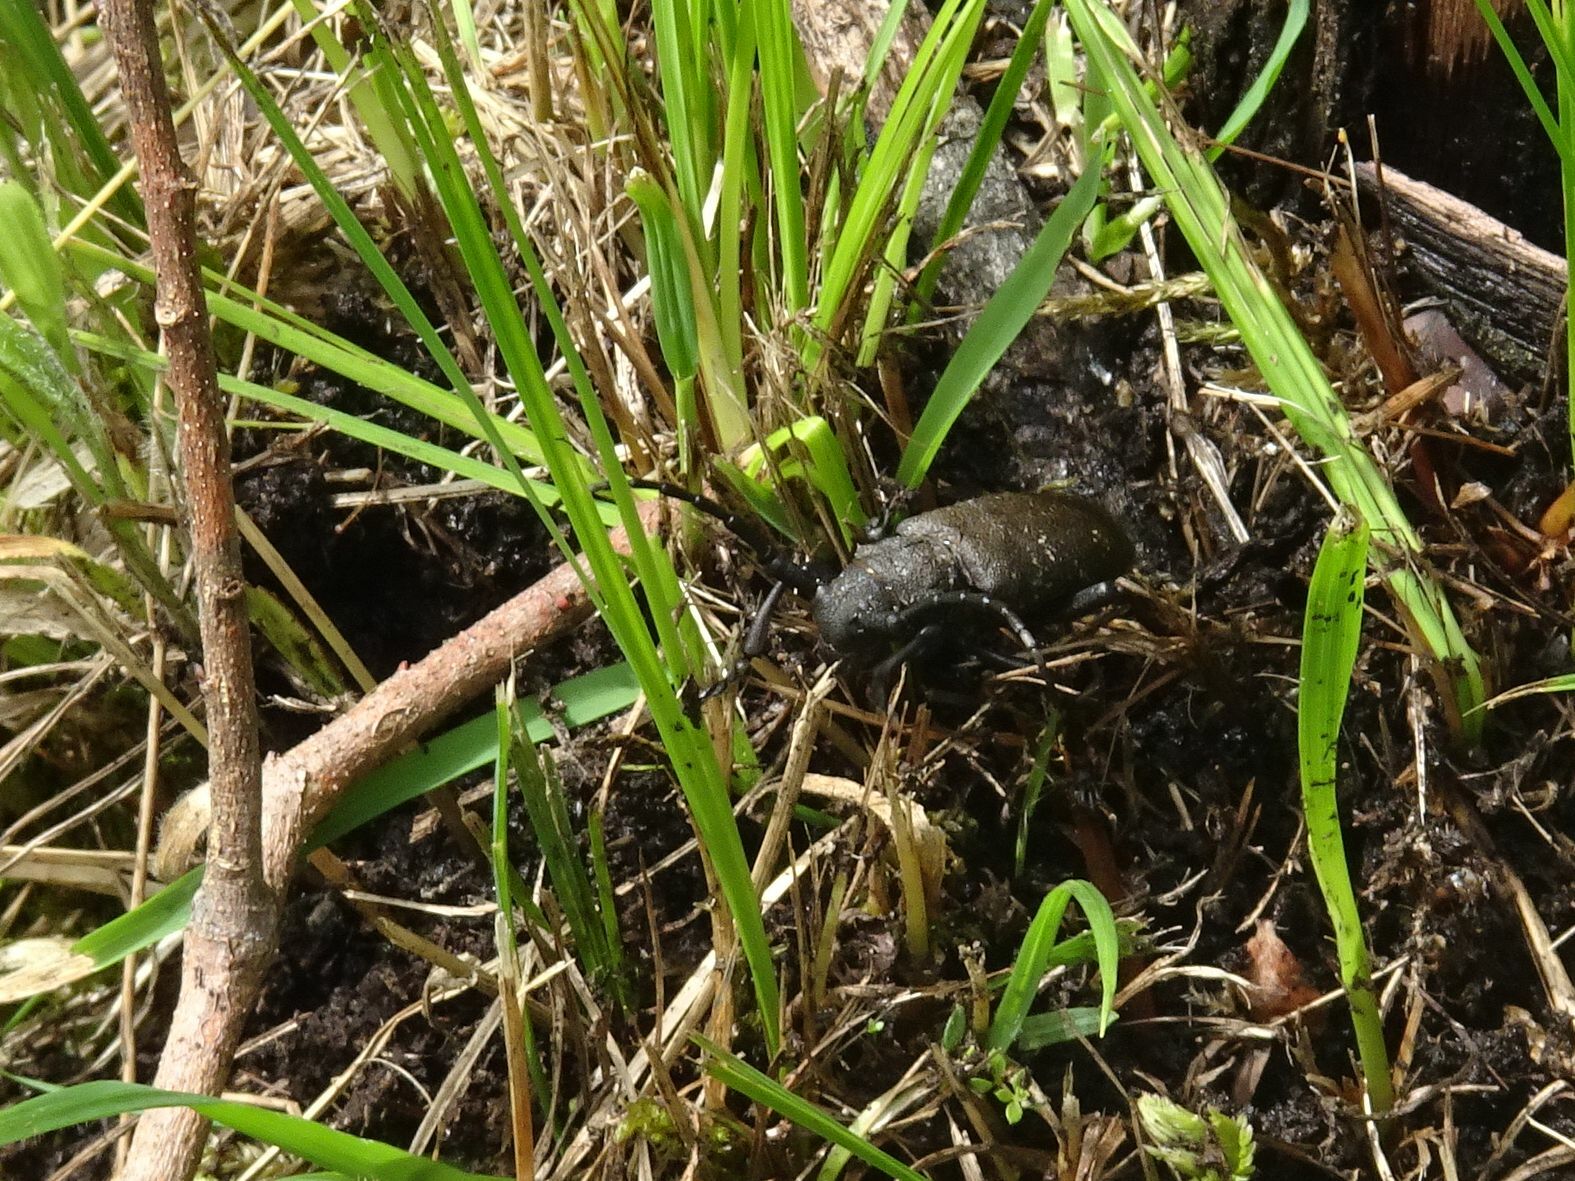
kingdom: Animalia
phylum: Arthropoda
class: Insecta
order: Coleoptera
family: Cerambycidae
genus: Lamia
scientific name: Lamia textor
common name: Weaver beetle
